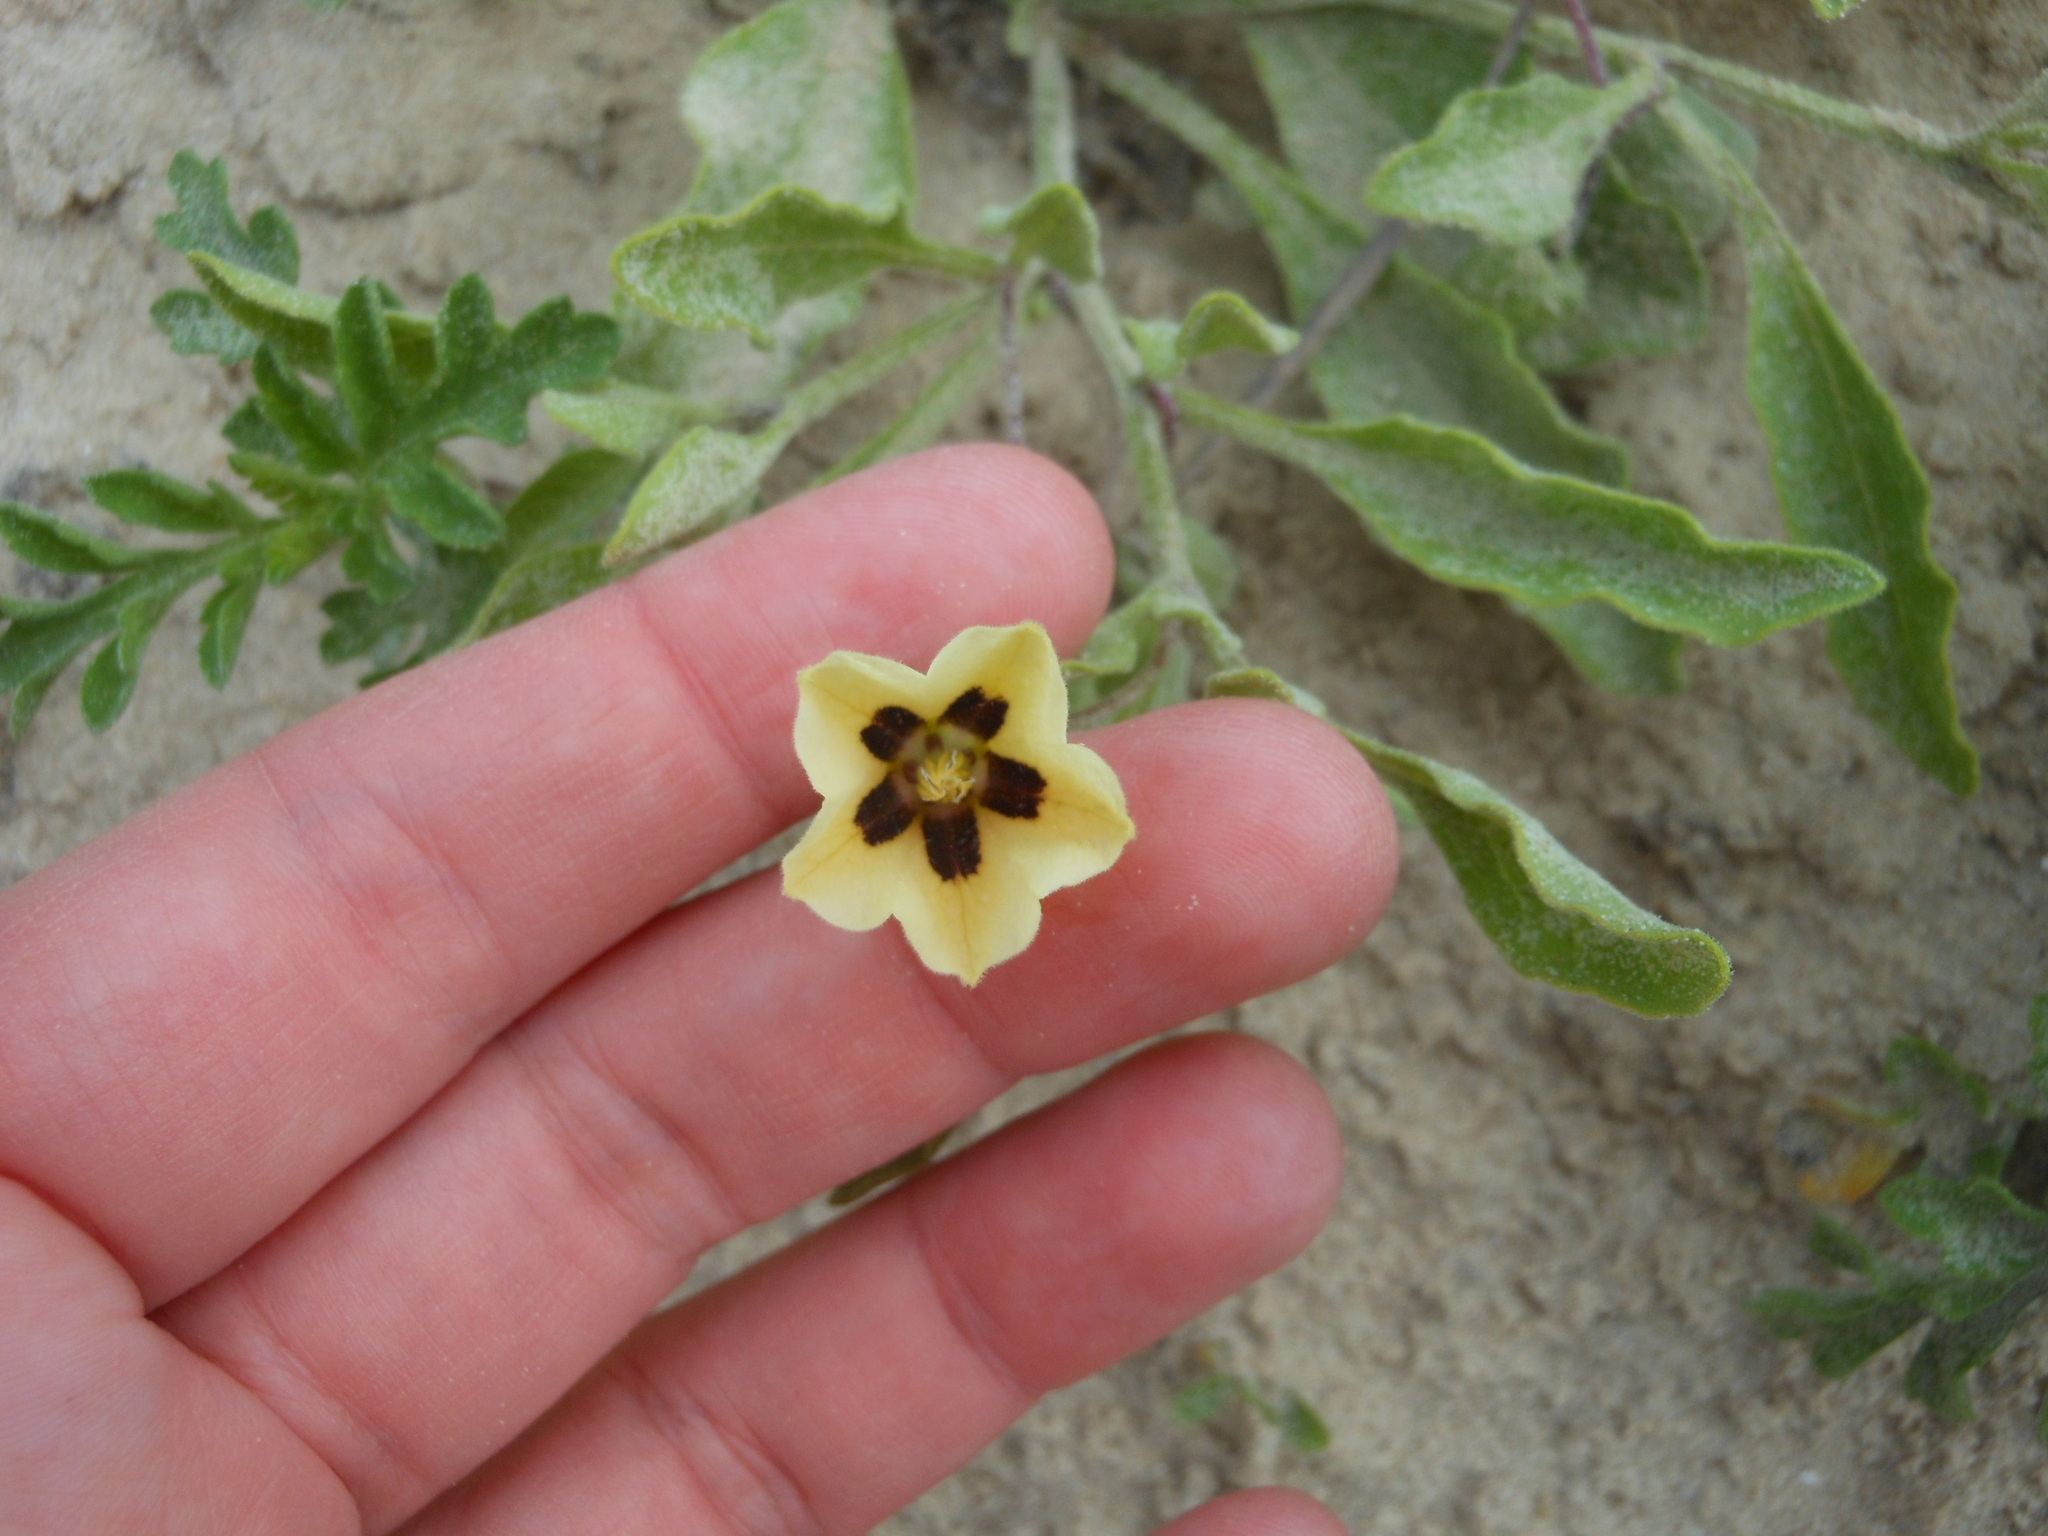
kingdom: Plantae
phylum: Tracheophyta
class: Magnoliopsida
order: Solanales
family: Solanaceae
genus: Physalis
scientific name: Physalis cinerascens
